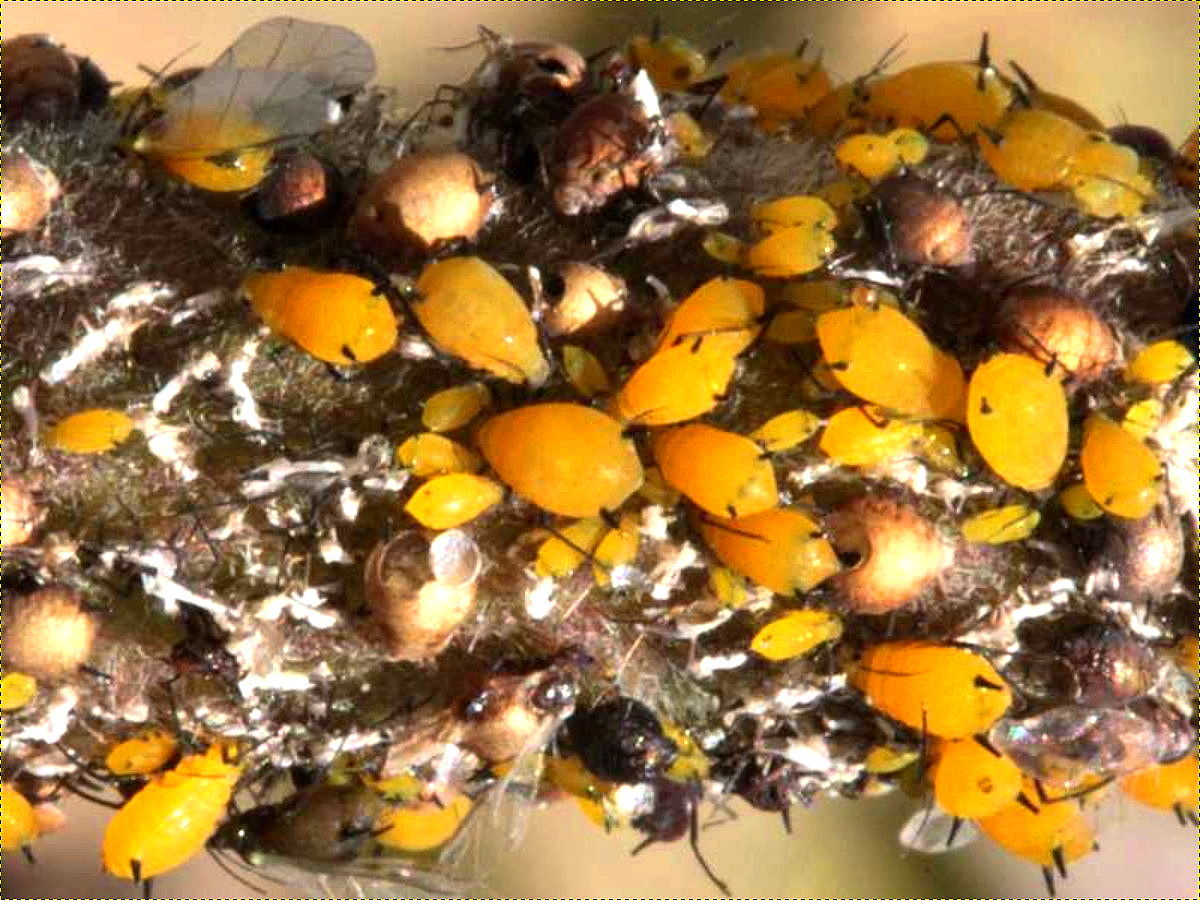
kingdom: Animalia
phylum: Arthropoda
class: Insecta
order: Hemiptera
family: Aphididae
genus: Aphis
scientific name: Aphis nerii
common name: Oleander aphid
